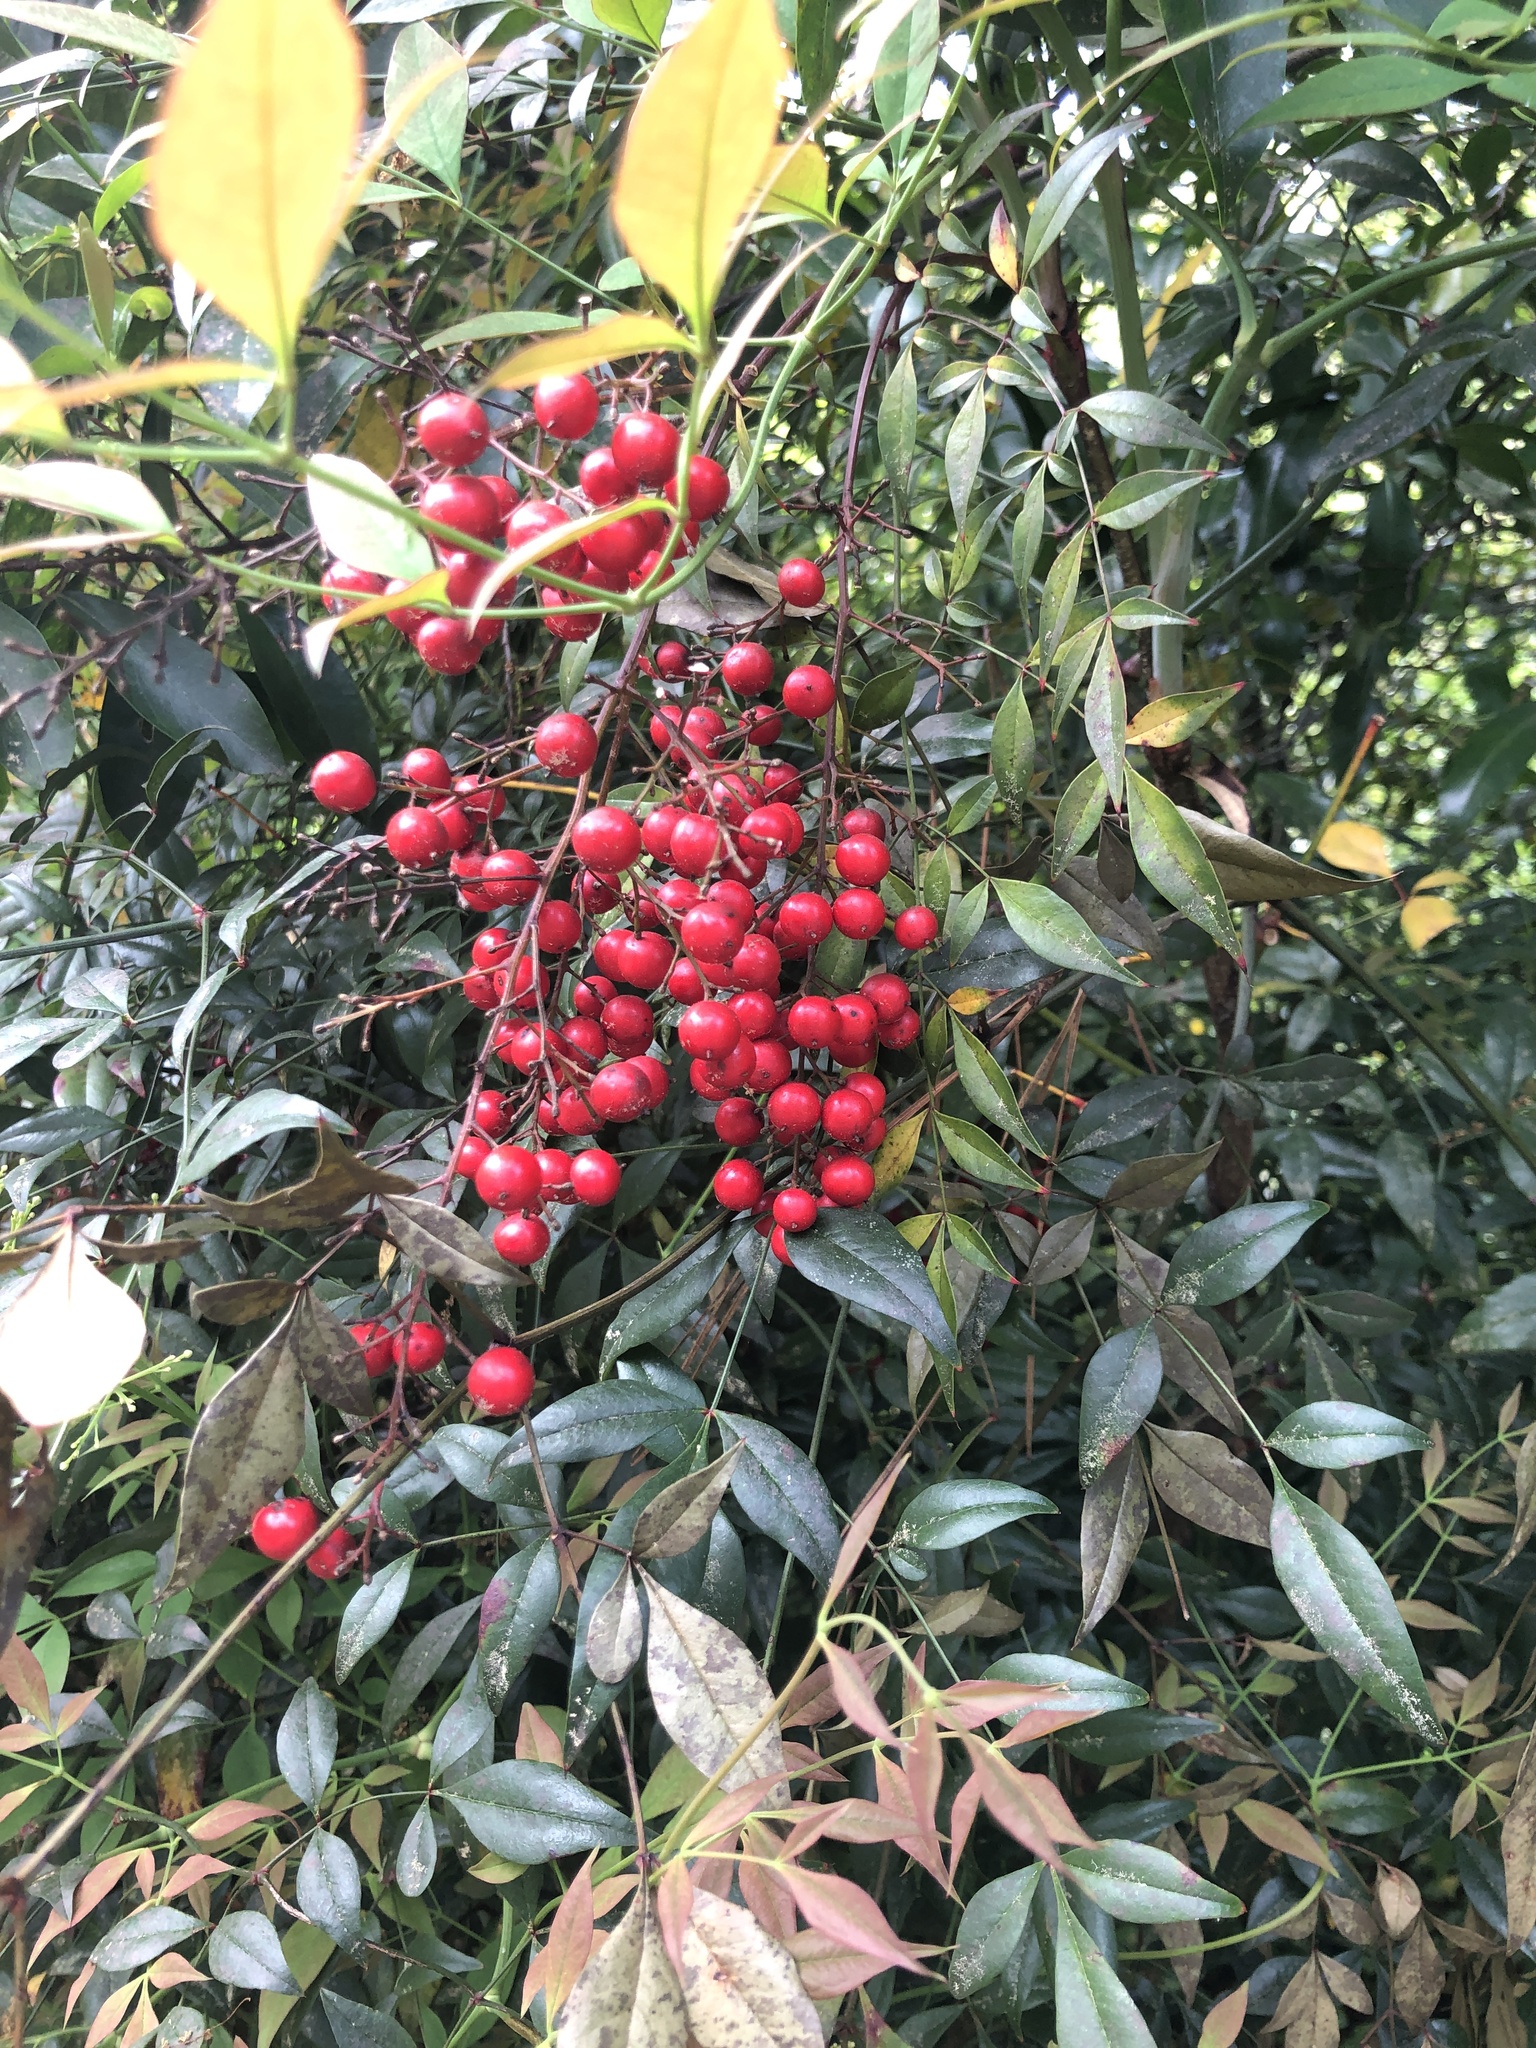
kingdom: Plantae
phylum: Tracheophyta
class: Magnoliopsida
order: Ranunculales
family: Berberidaceae
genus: Nandina
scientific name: Nandina domestica
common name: Sacred bamboo
